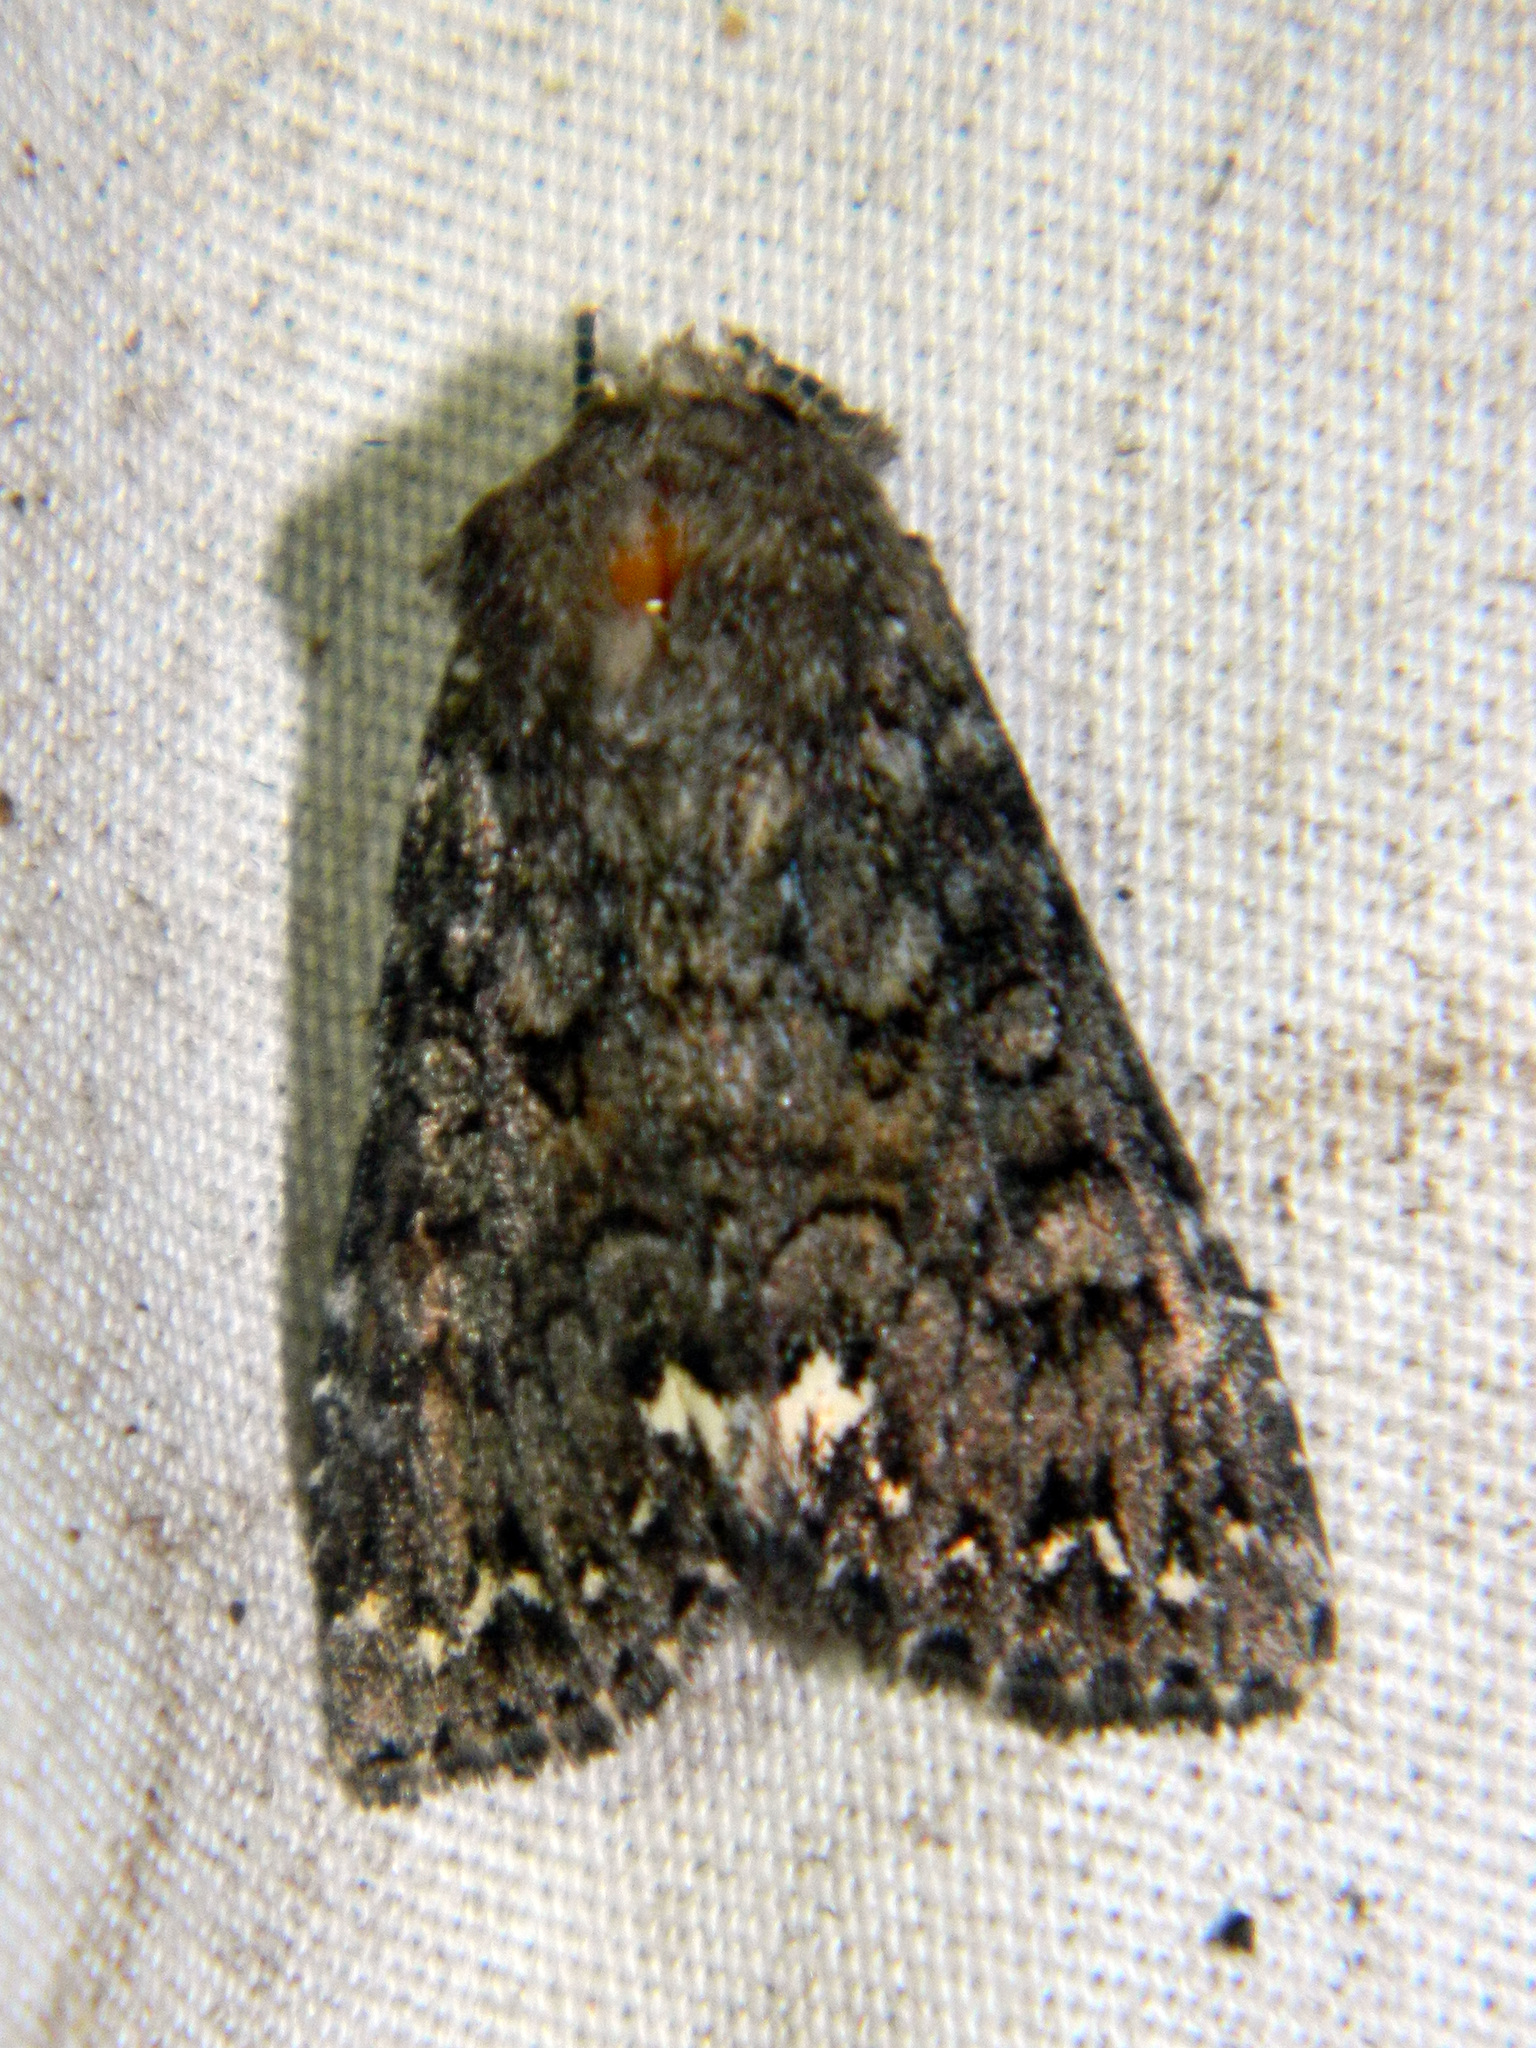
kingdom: Animalia
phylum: Arthropoda
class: Insecta
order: Lepidoptera
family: Noctuidae
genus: Melanchra
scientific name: Melanchra pulverulenta
